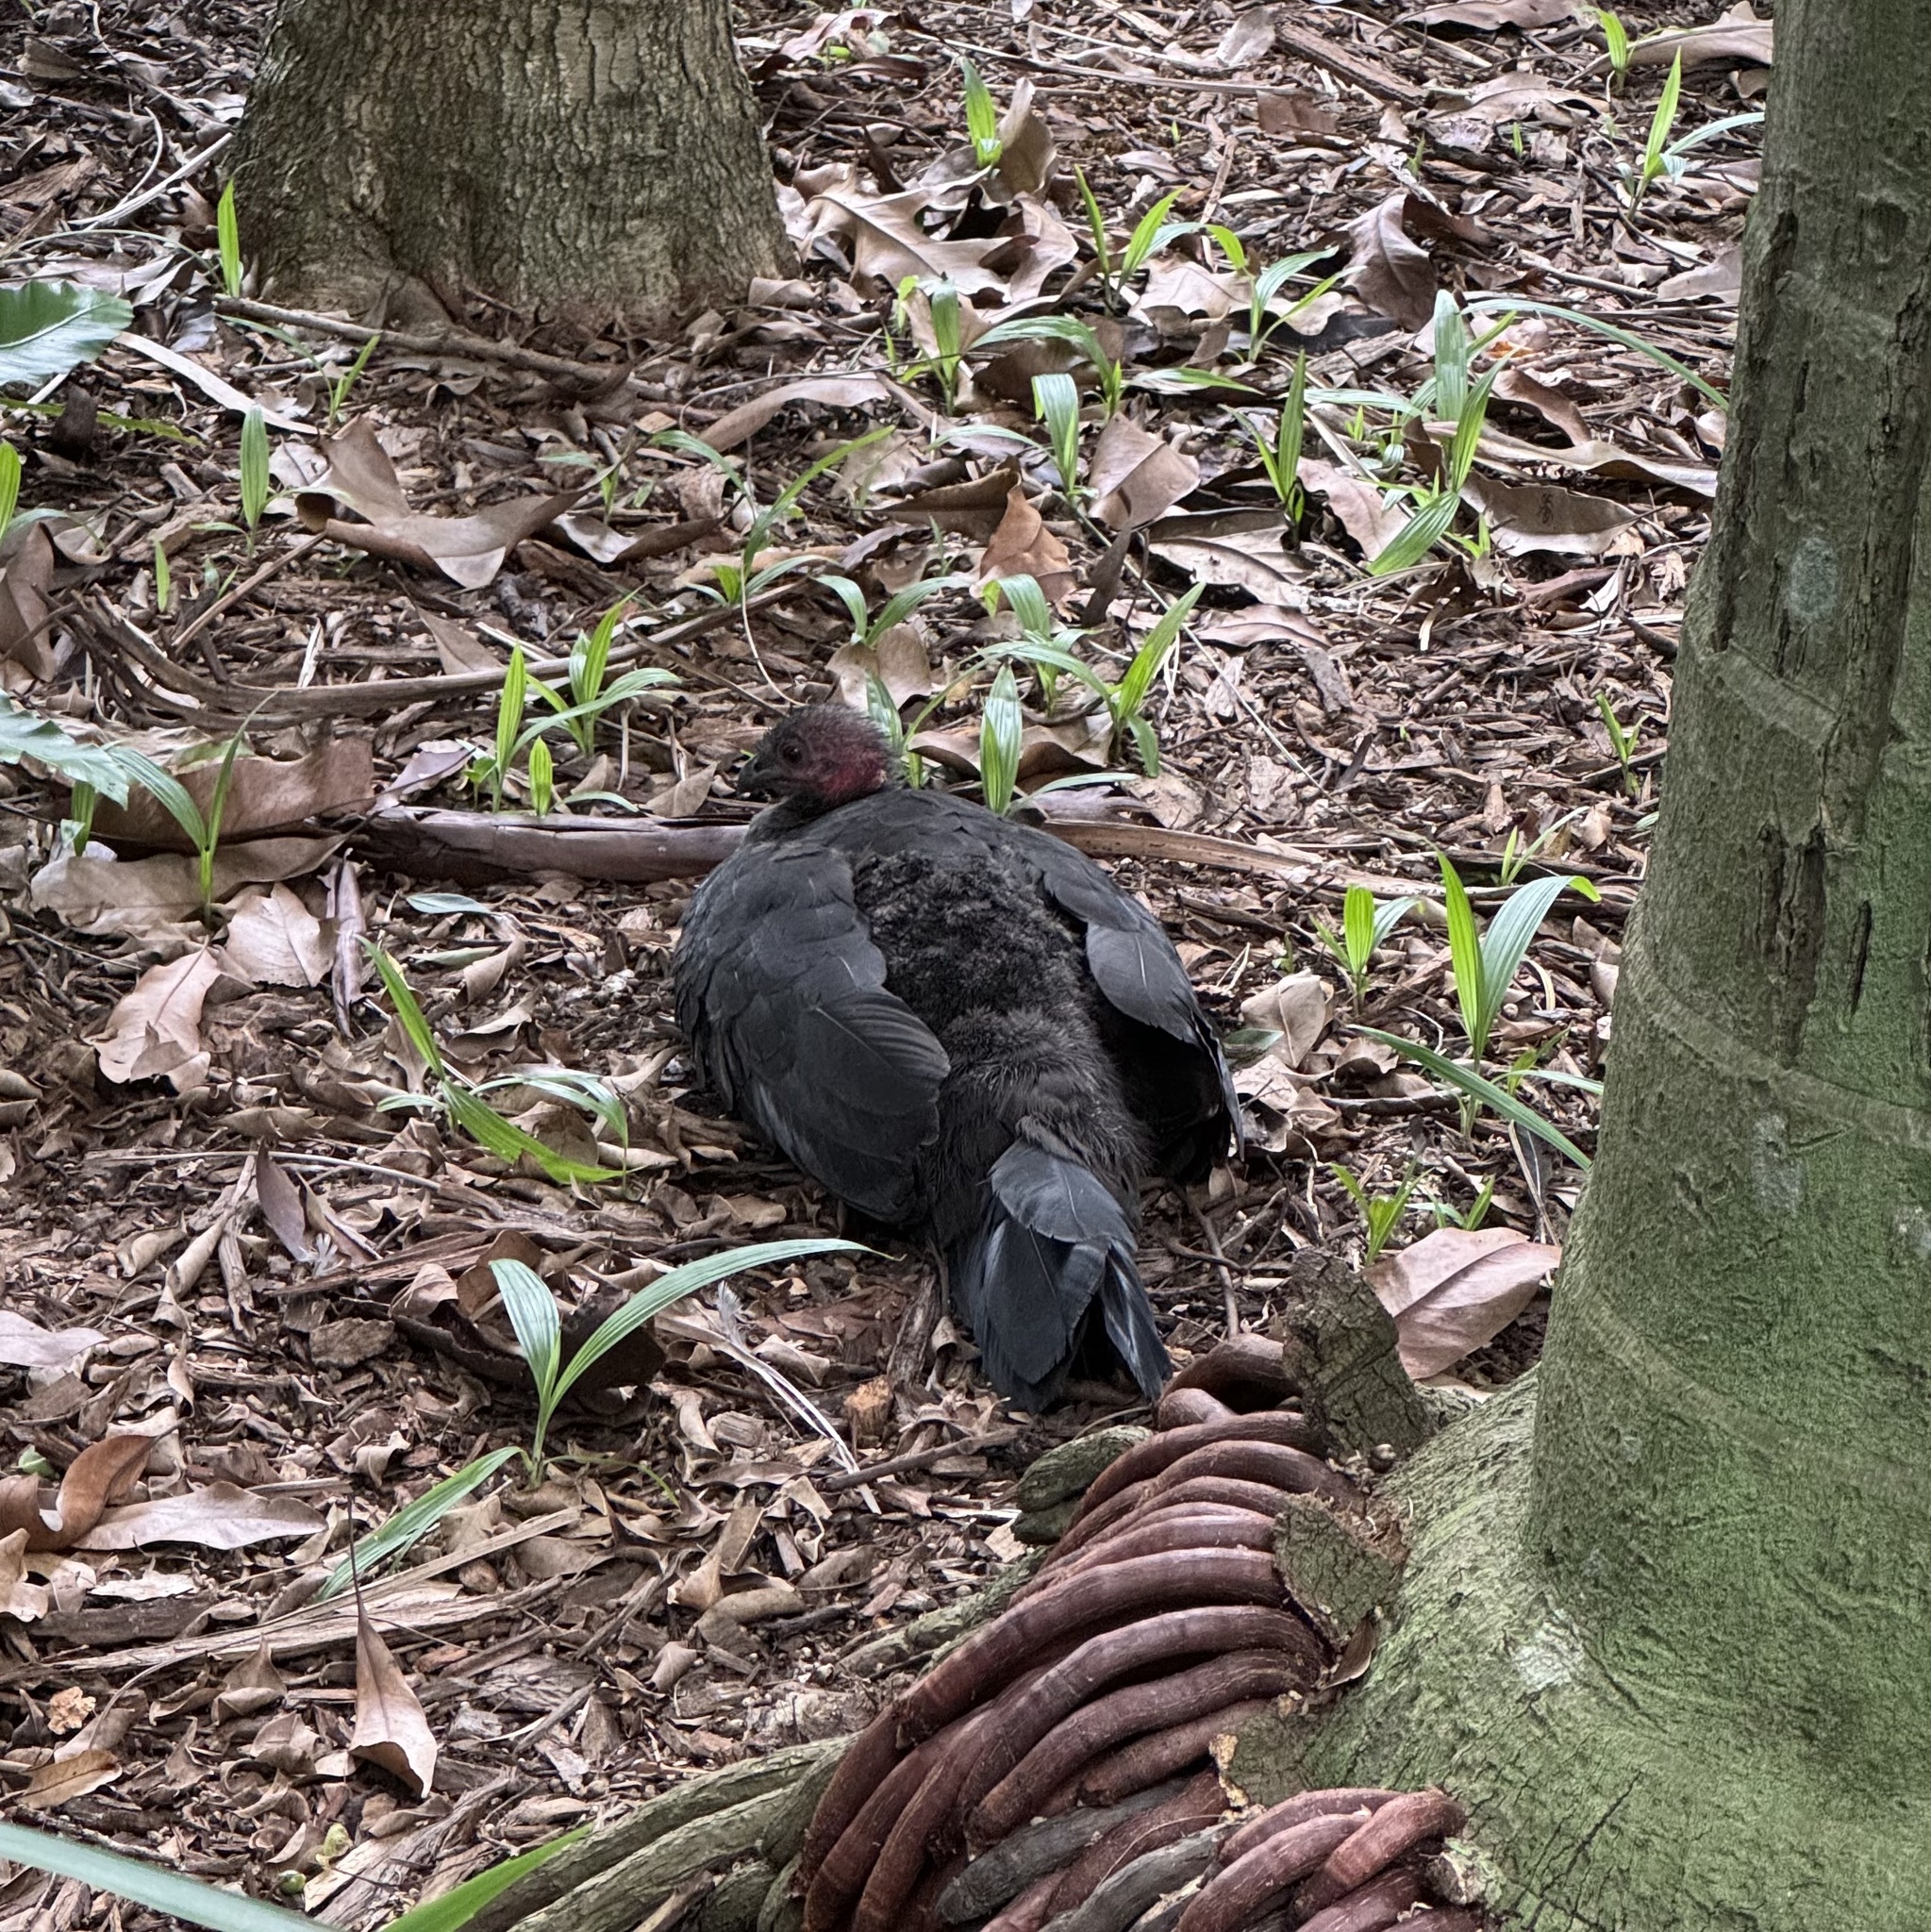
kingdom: Animalia
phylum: Chordata
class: Aves
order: Galliformes
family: Megapodiidae
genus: Alectura
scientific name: Alectura lathami
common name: Australian brushturkey
